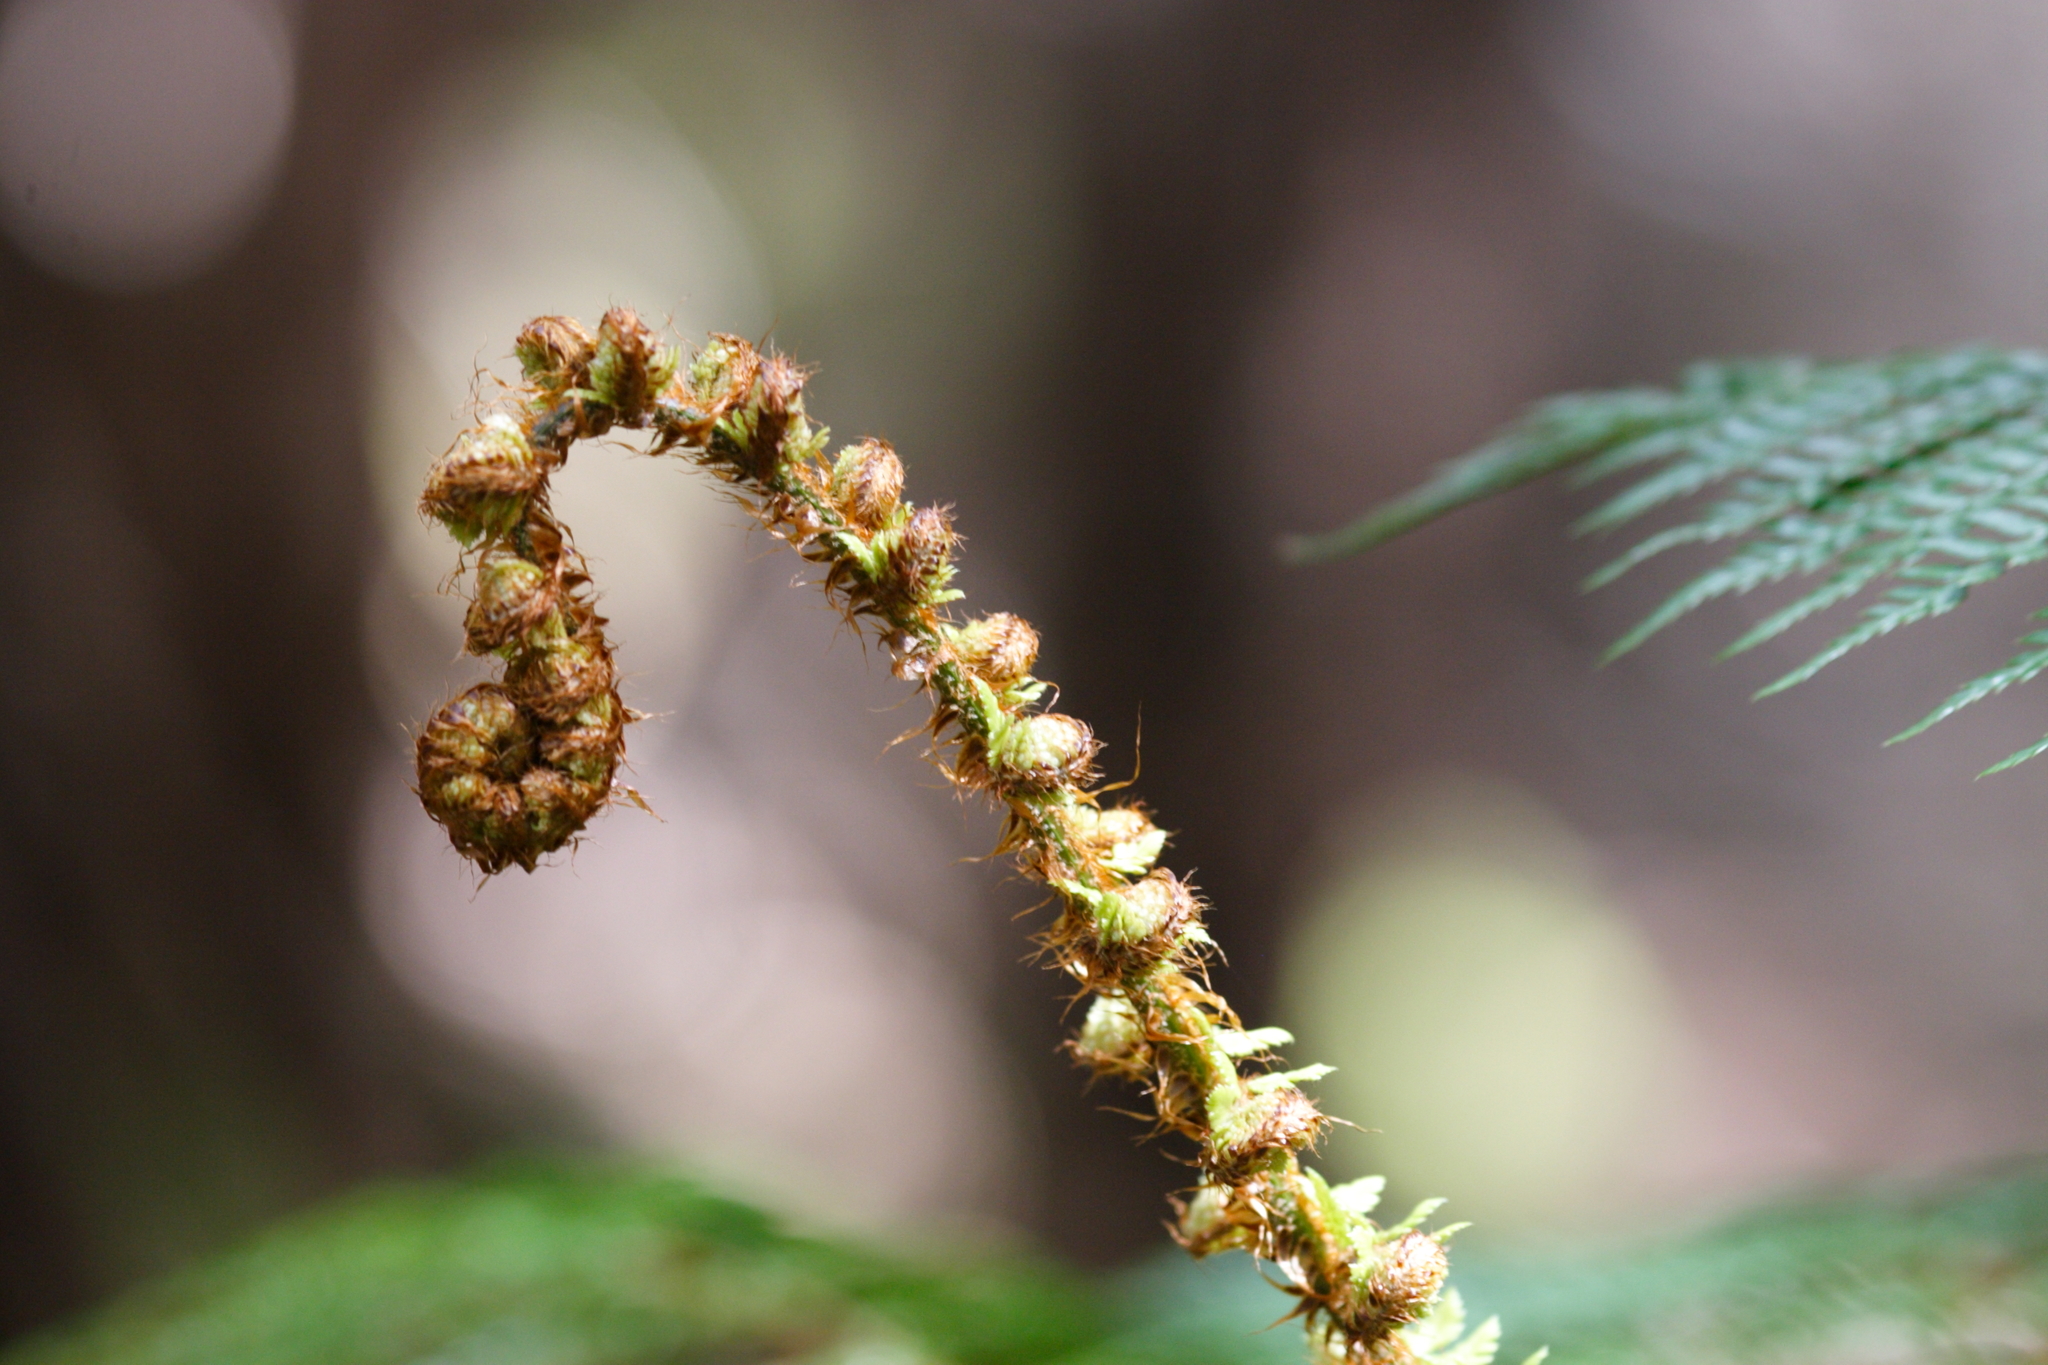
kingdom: Plantae
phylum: Tracheophyta
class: Polypodiopsida
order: Polypodiales
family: Dryopteridaceae
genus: Polystichum
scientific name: Polystichum vestitum
